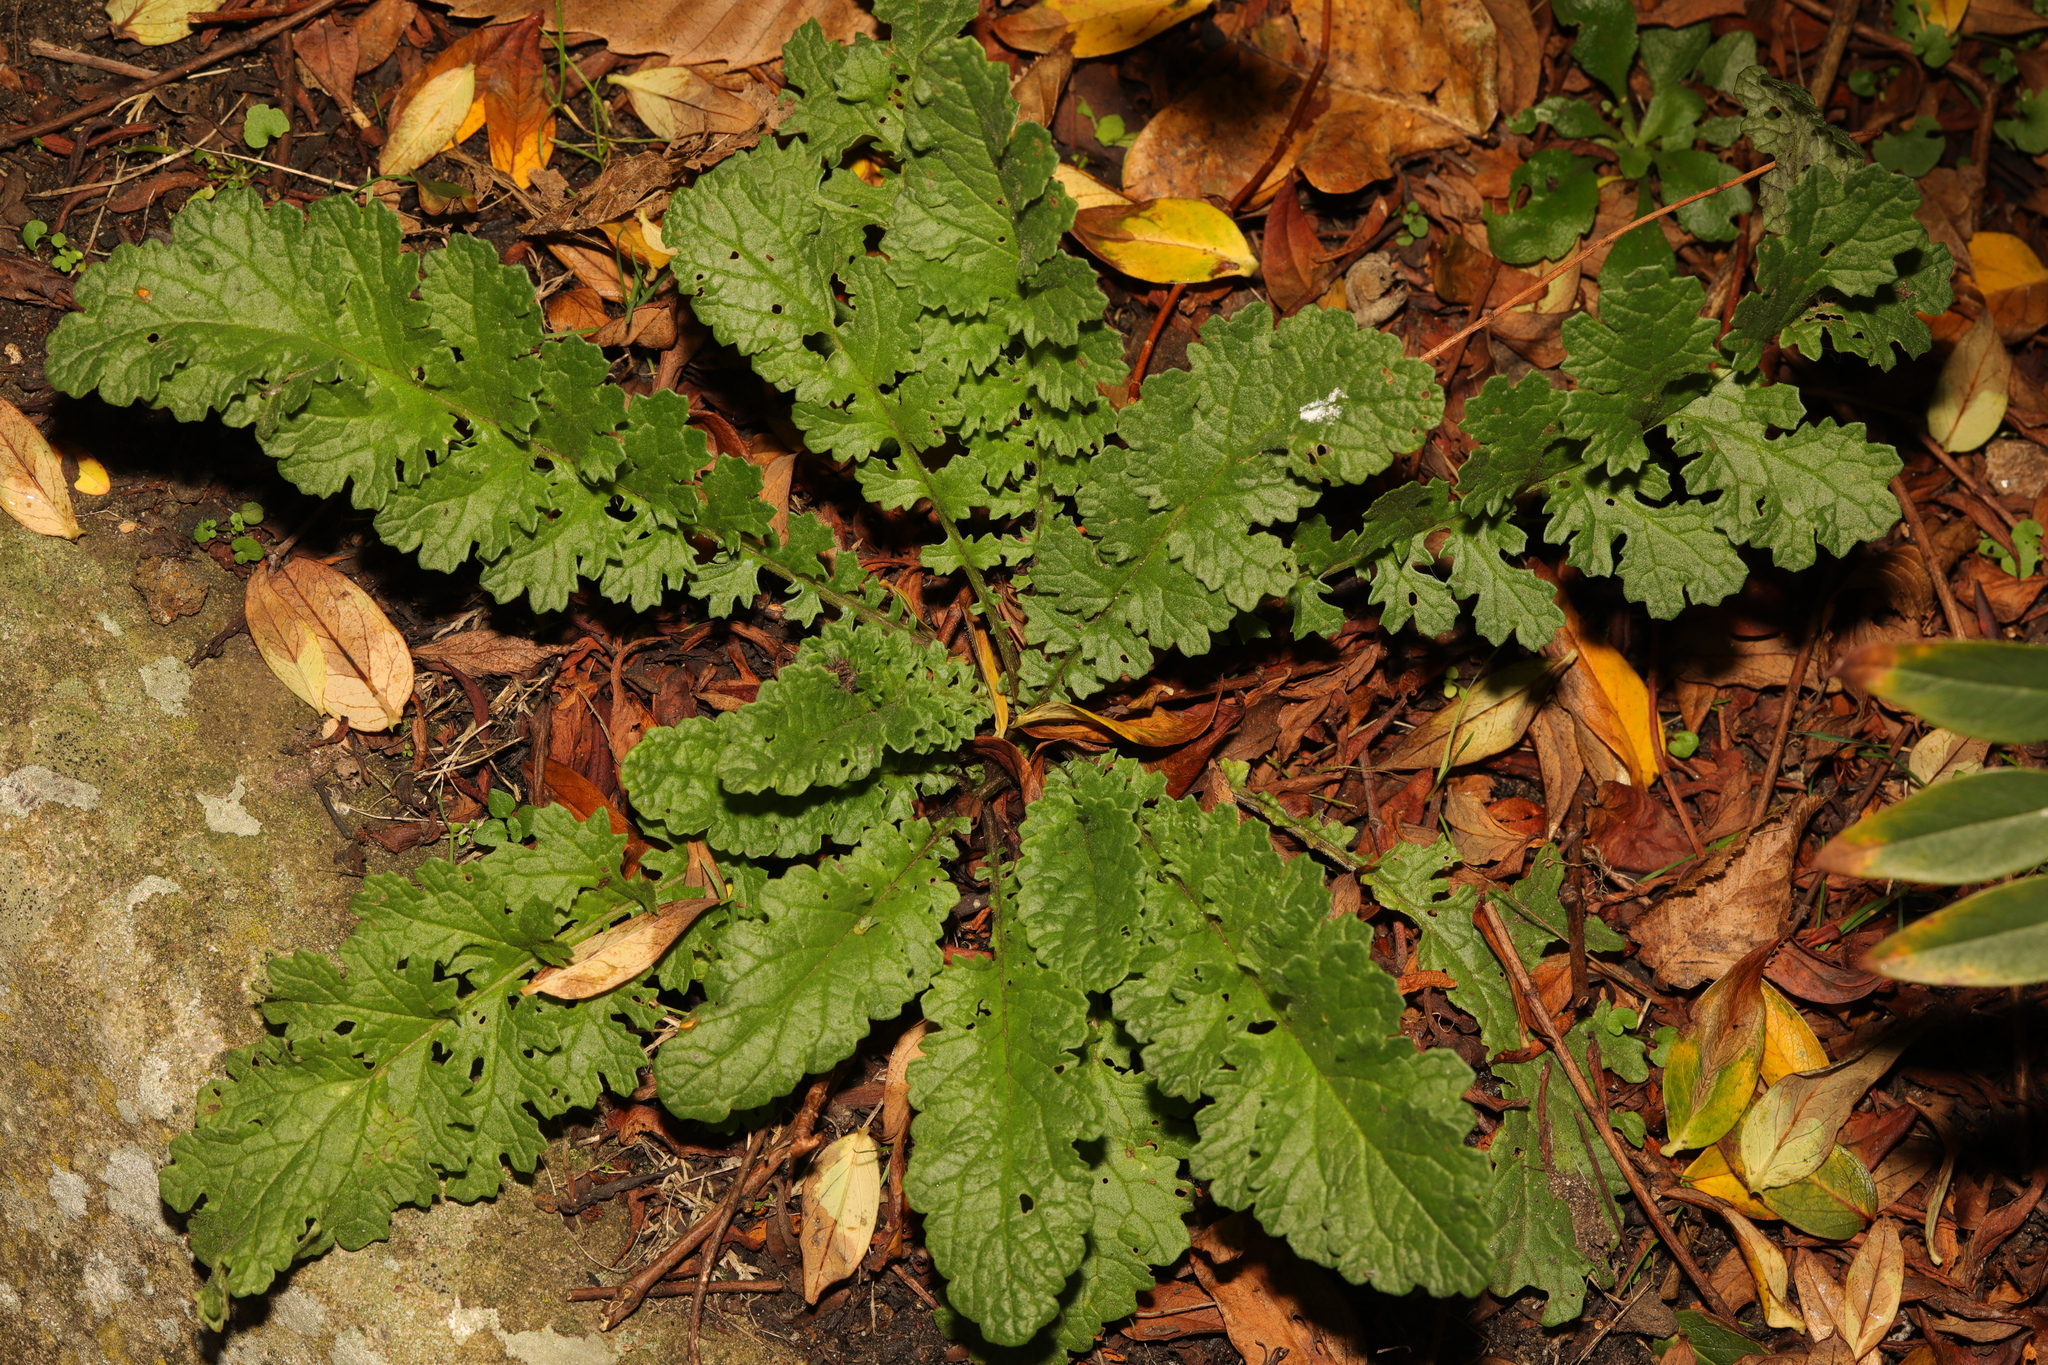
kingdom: Plantae
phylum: Tracheophyta
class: Magnoliopsida
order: Asterales
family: Asteraceae
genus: Jacobaea
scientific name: Jacobaea vulgaris
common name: Stinking willie
